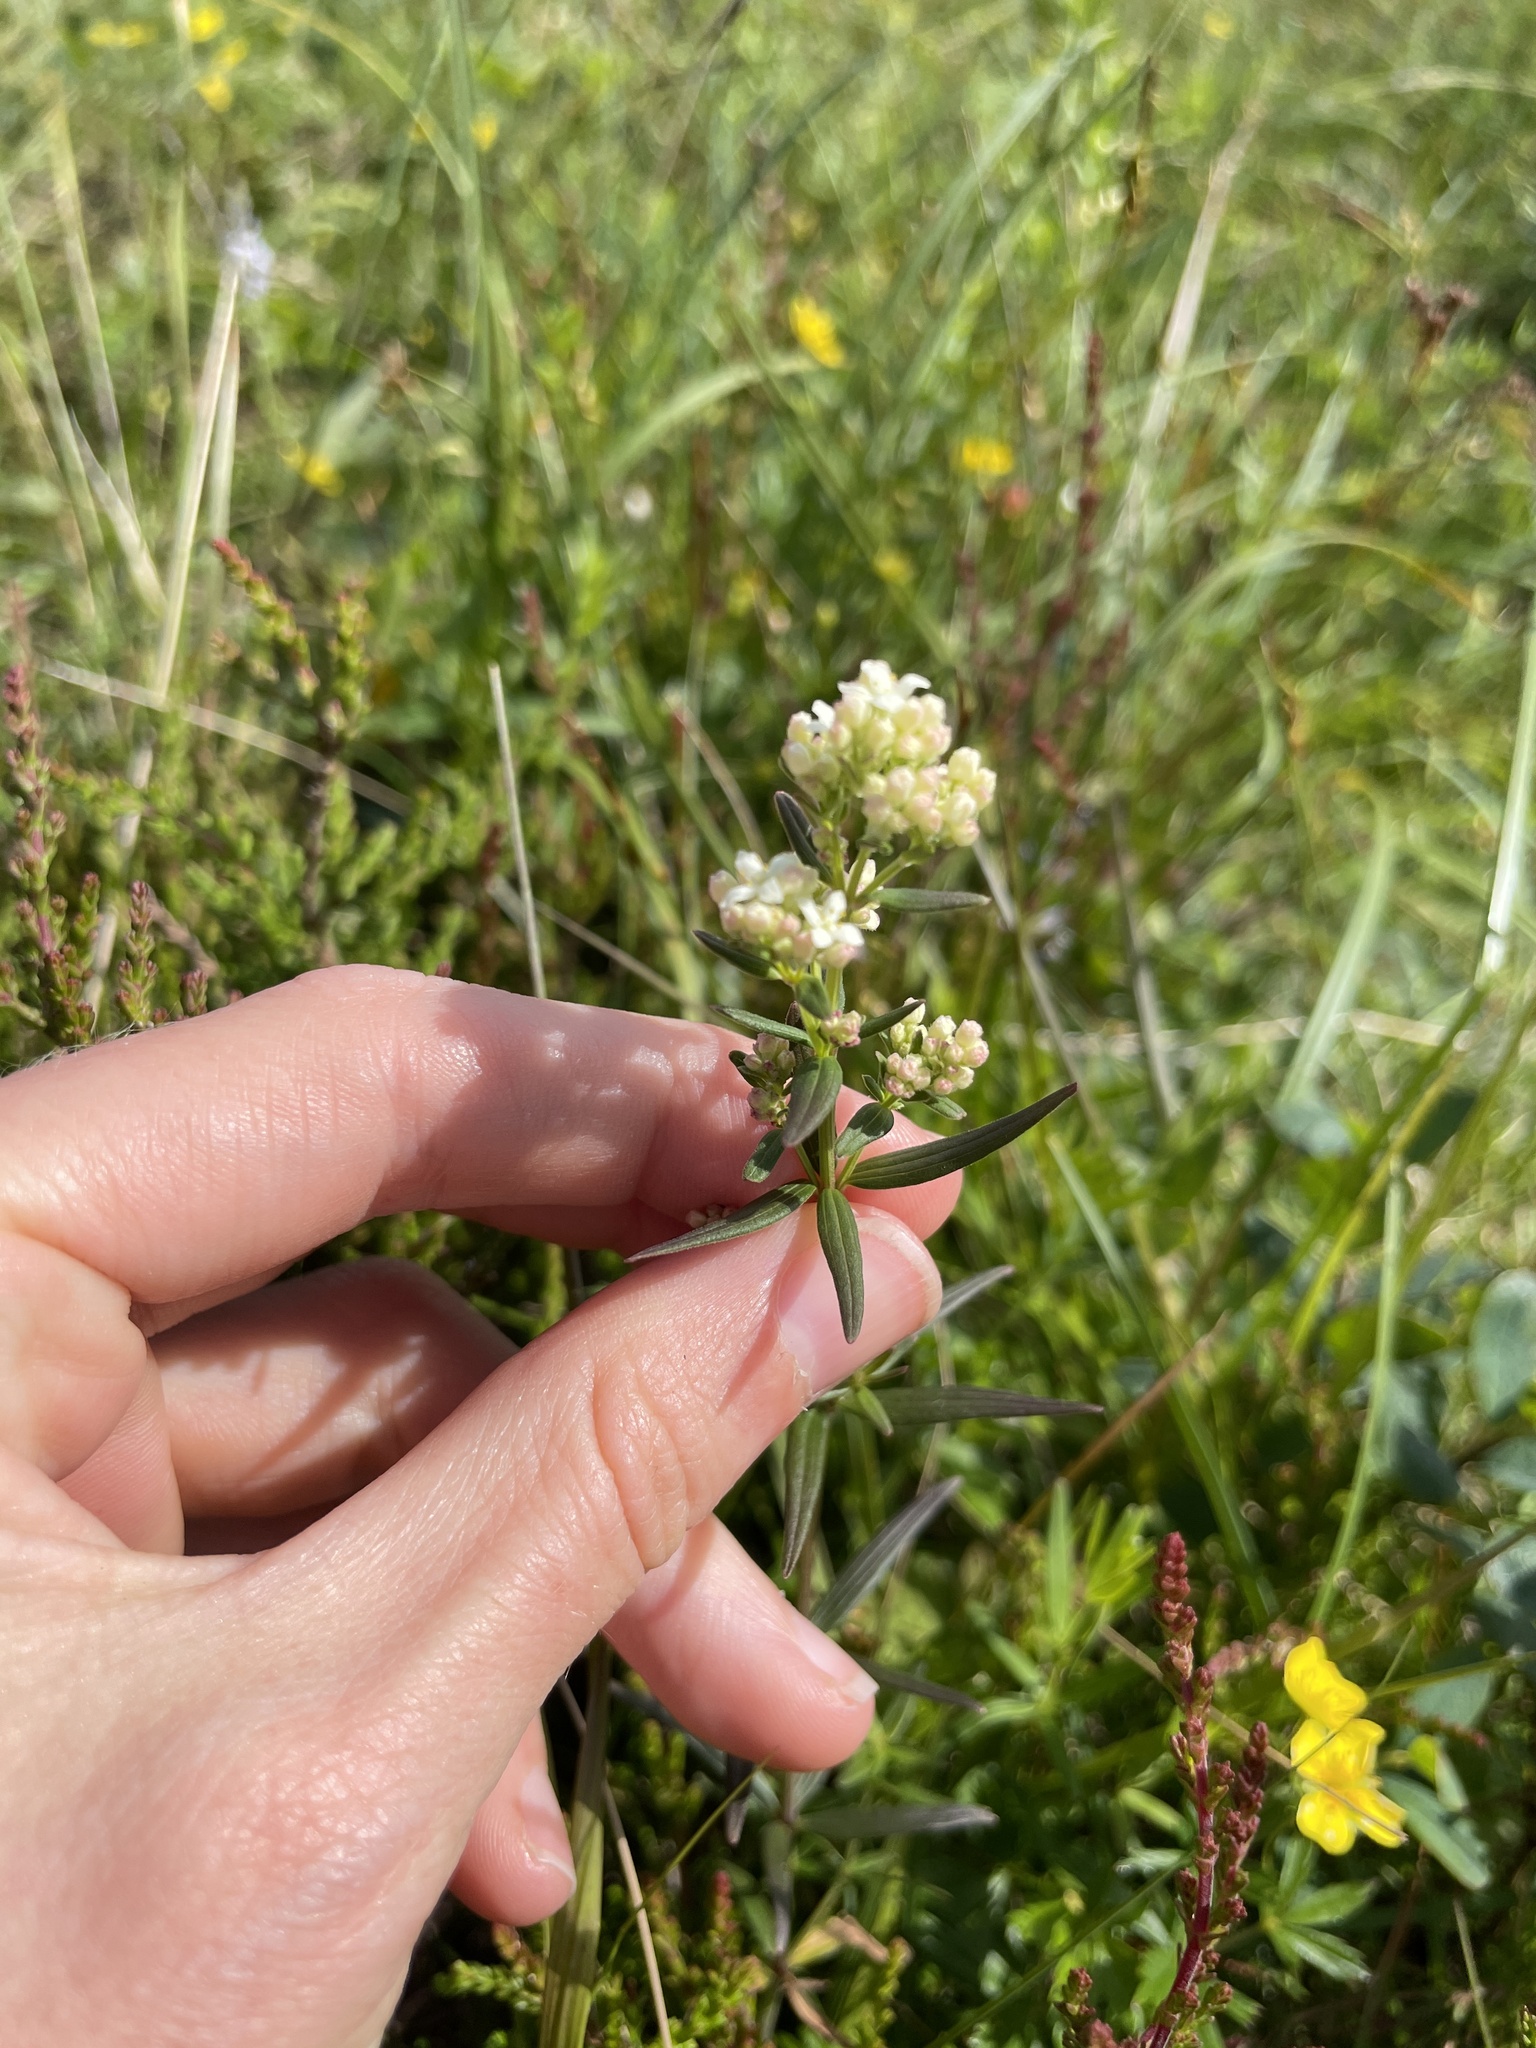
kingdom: Plantae
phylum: Tracheophyta
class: Magnoliopsida
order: Gentianales
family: Rubiaceae
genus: Galium
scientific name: Galium boreale
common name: Northern bedstraw
